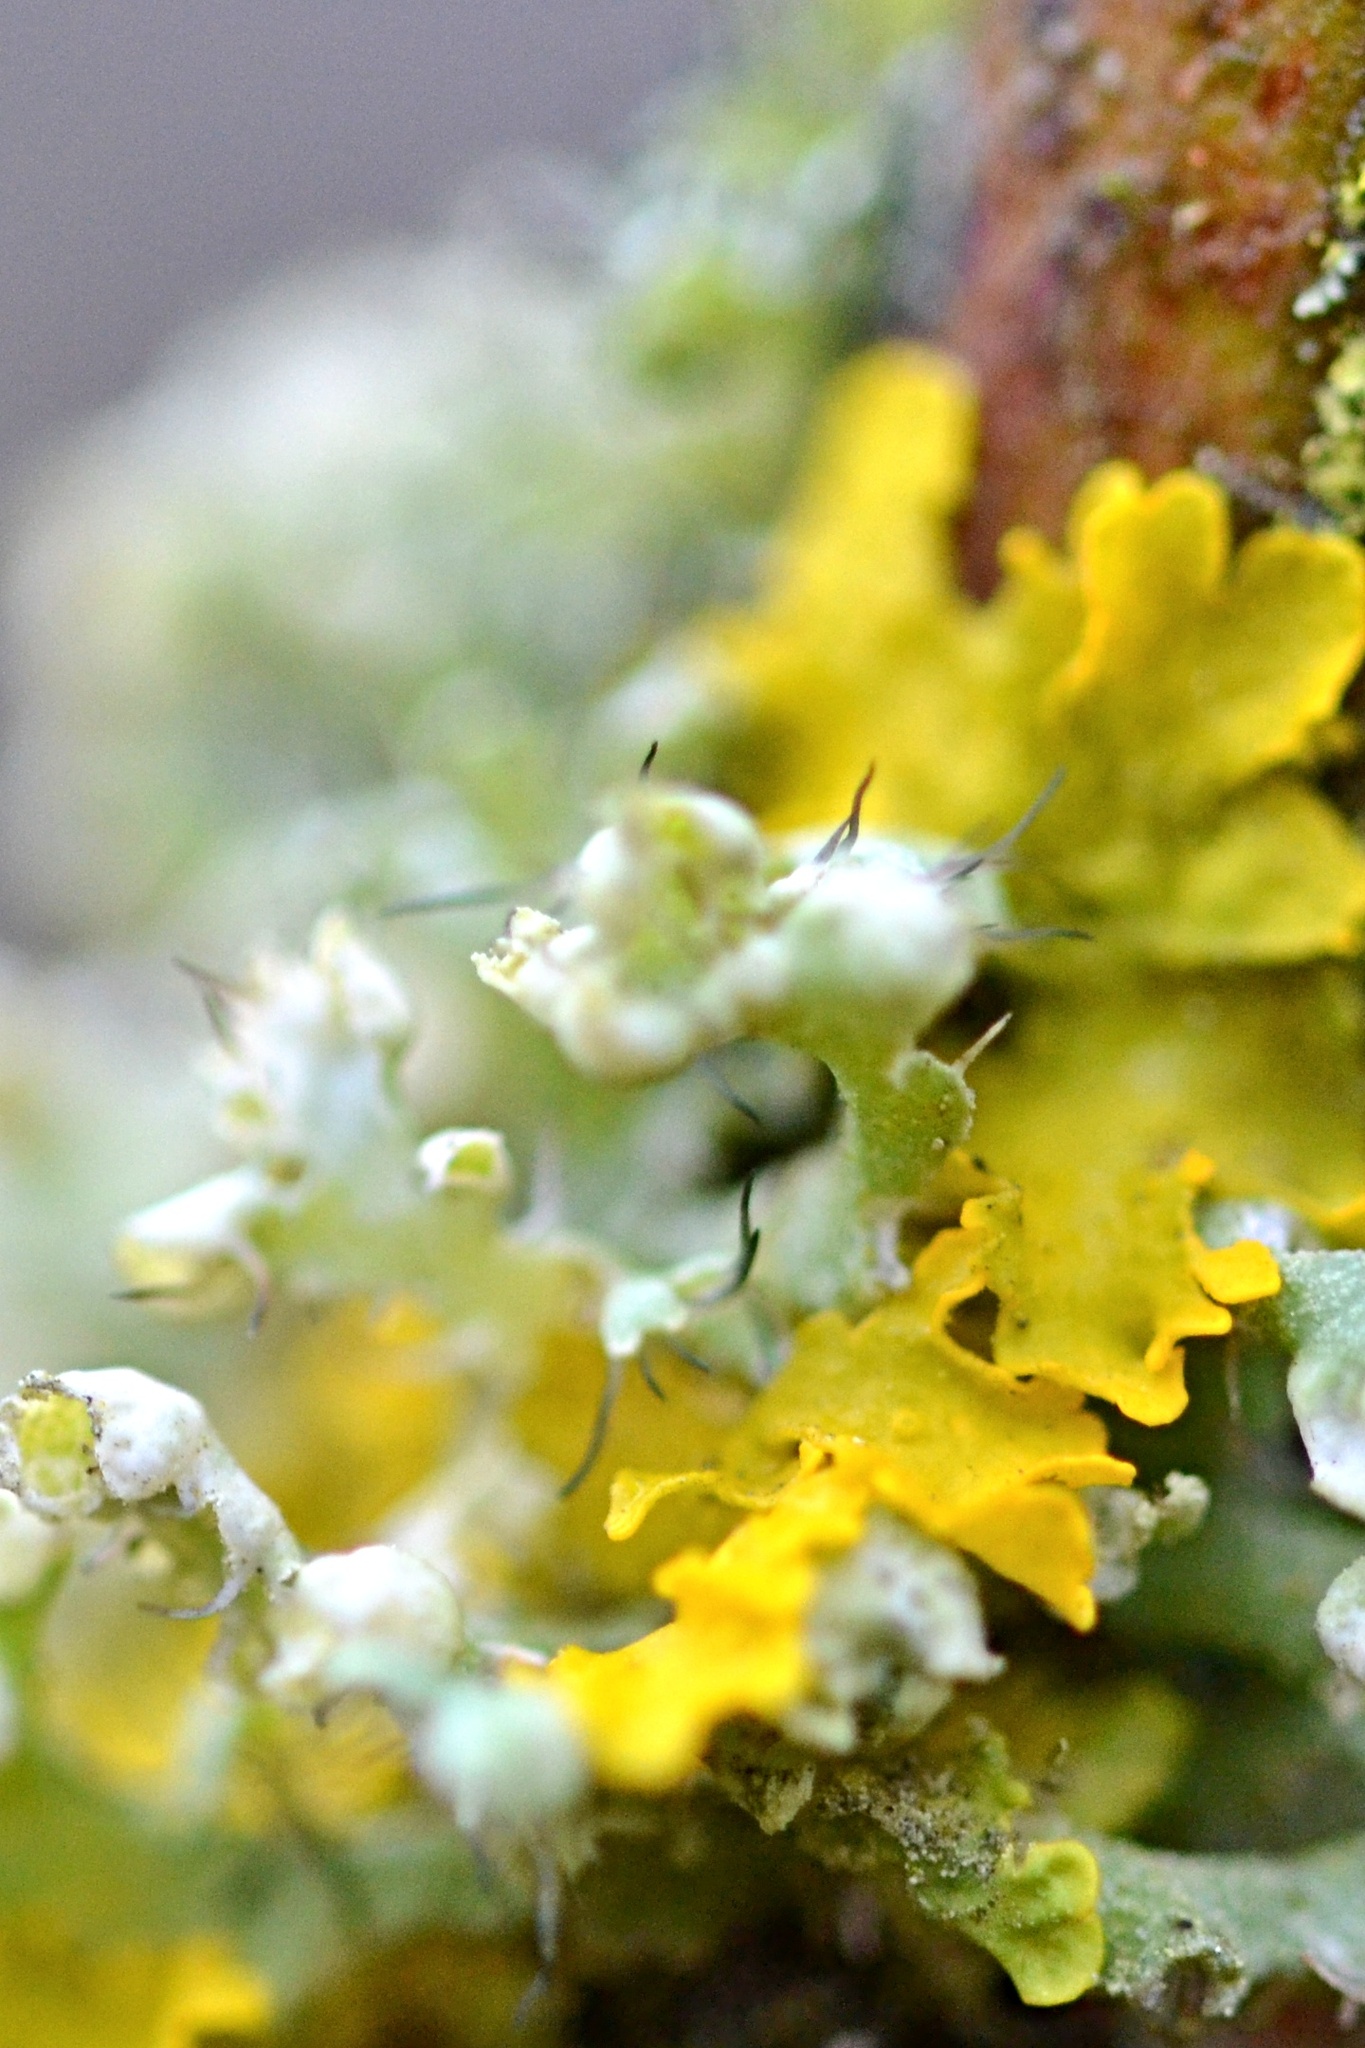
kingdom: Fungi
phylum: Ascomycota
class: Lecanoromycetes
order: Caliciales
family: Physciaceae
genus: Physcia
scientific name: Physcia adscendens
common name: Hooded rosette lichen
